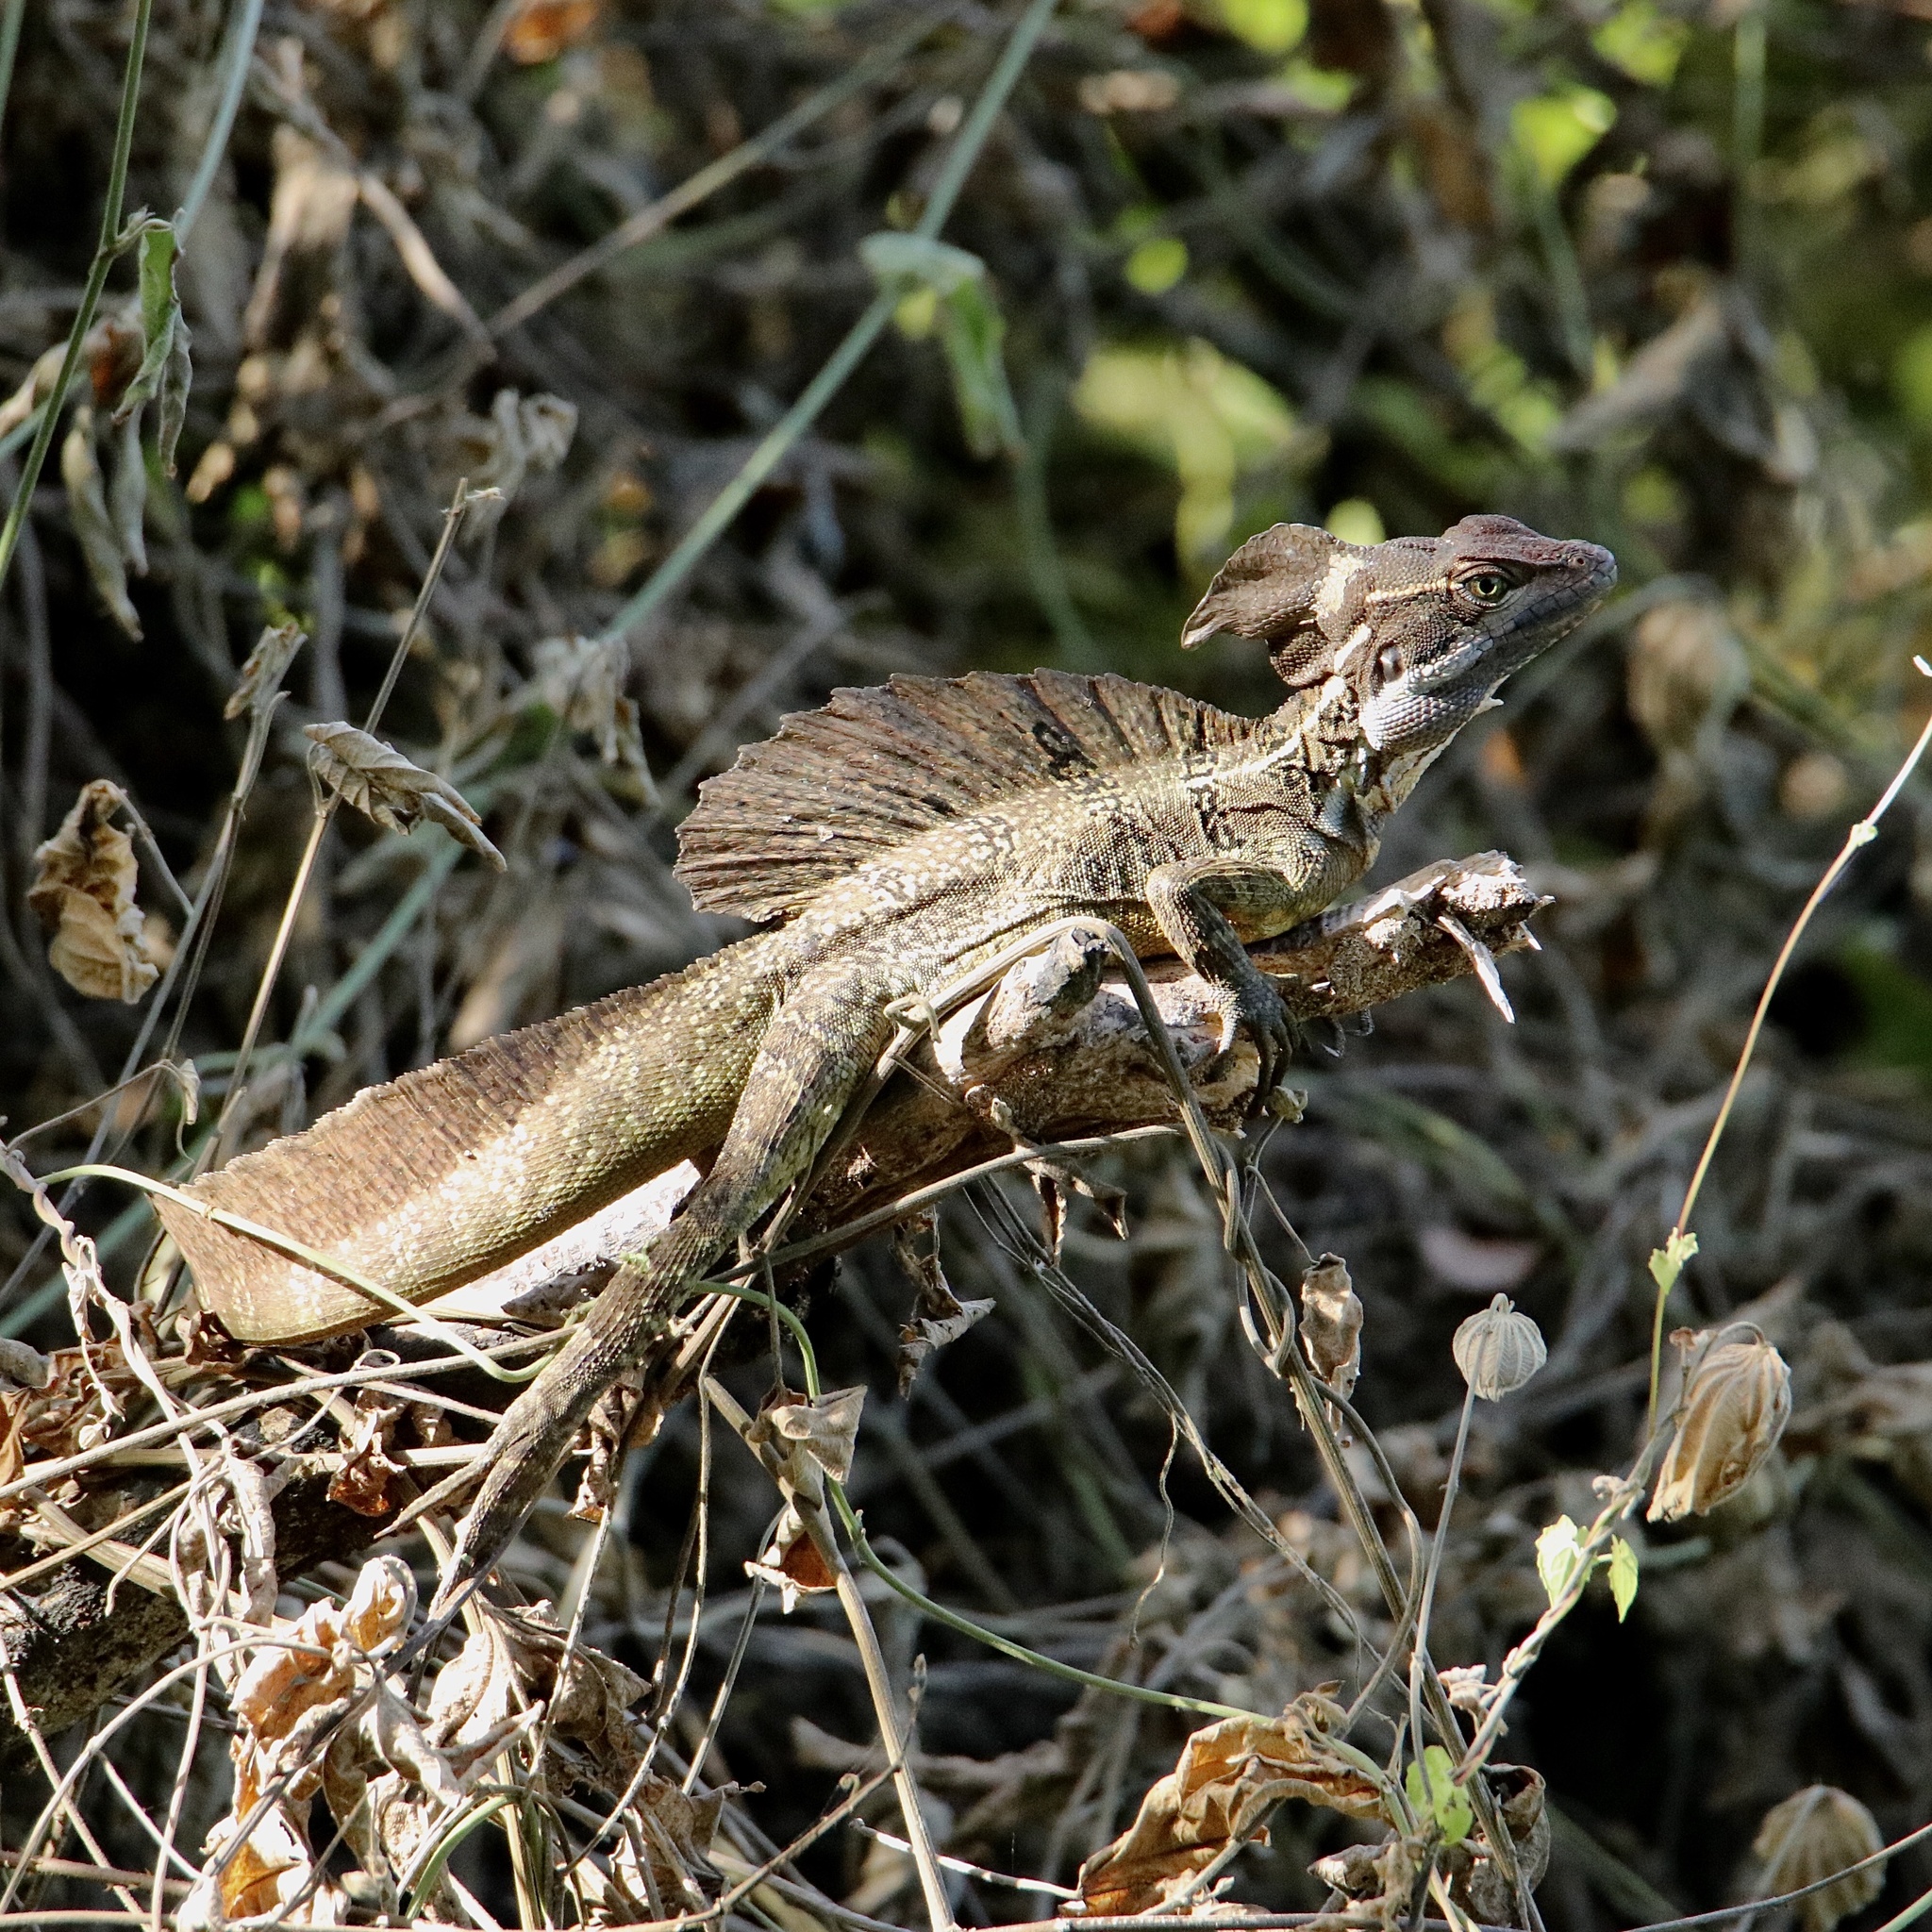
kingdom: Animalia
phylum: Chordata
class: Squamata
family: Corytophanidae
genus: Basiliscus
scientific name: Basiliscus basiliscus
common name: Common basilisk
